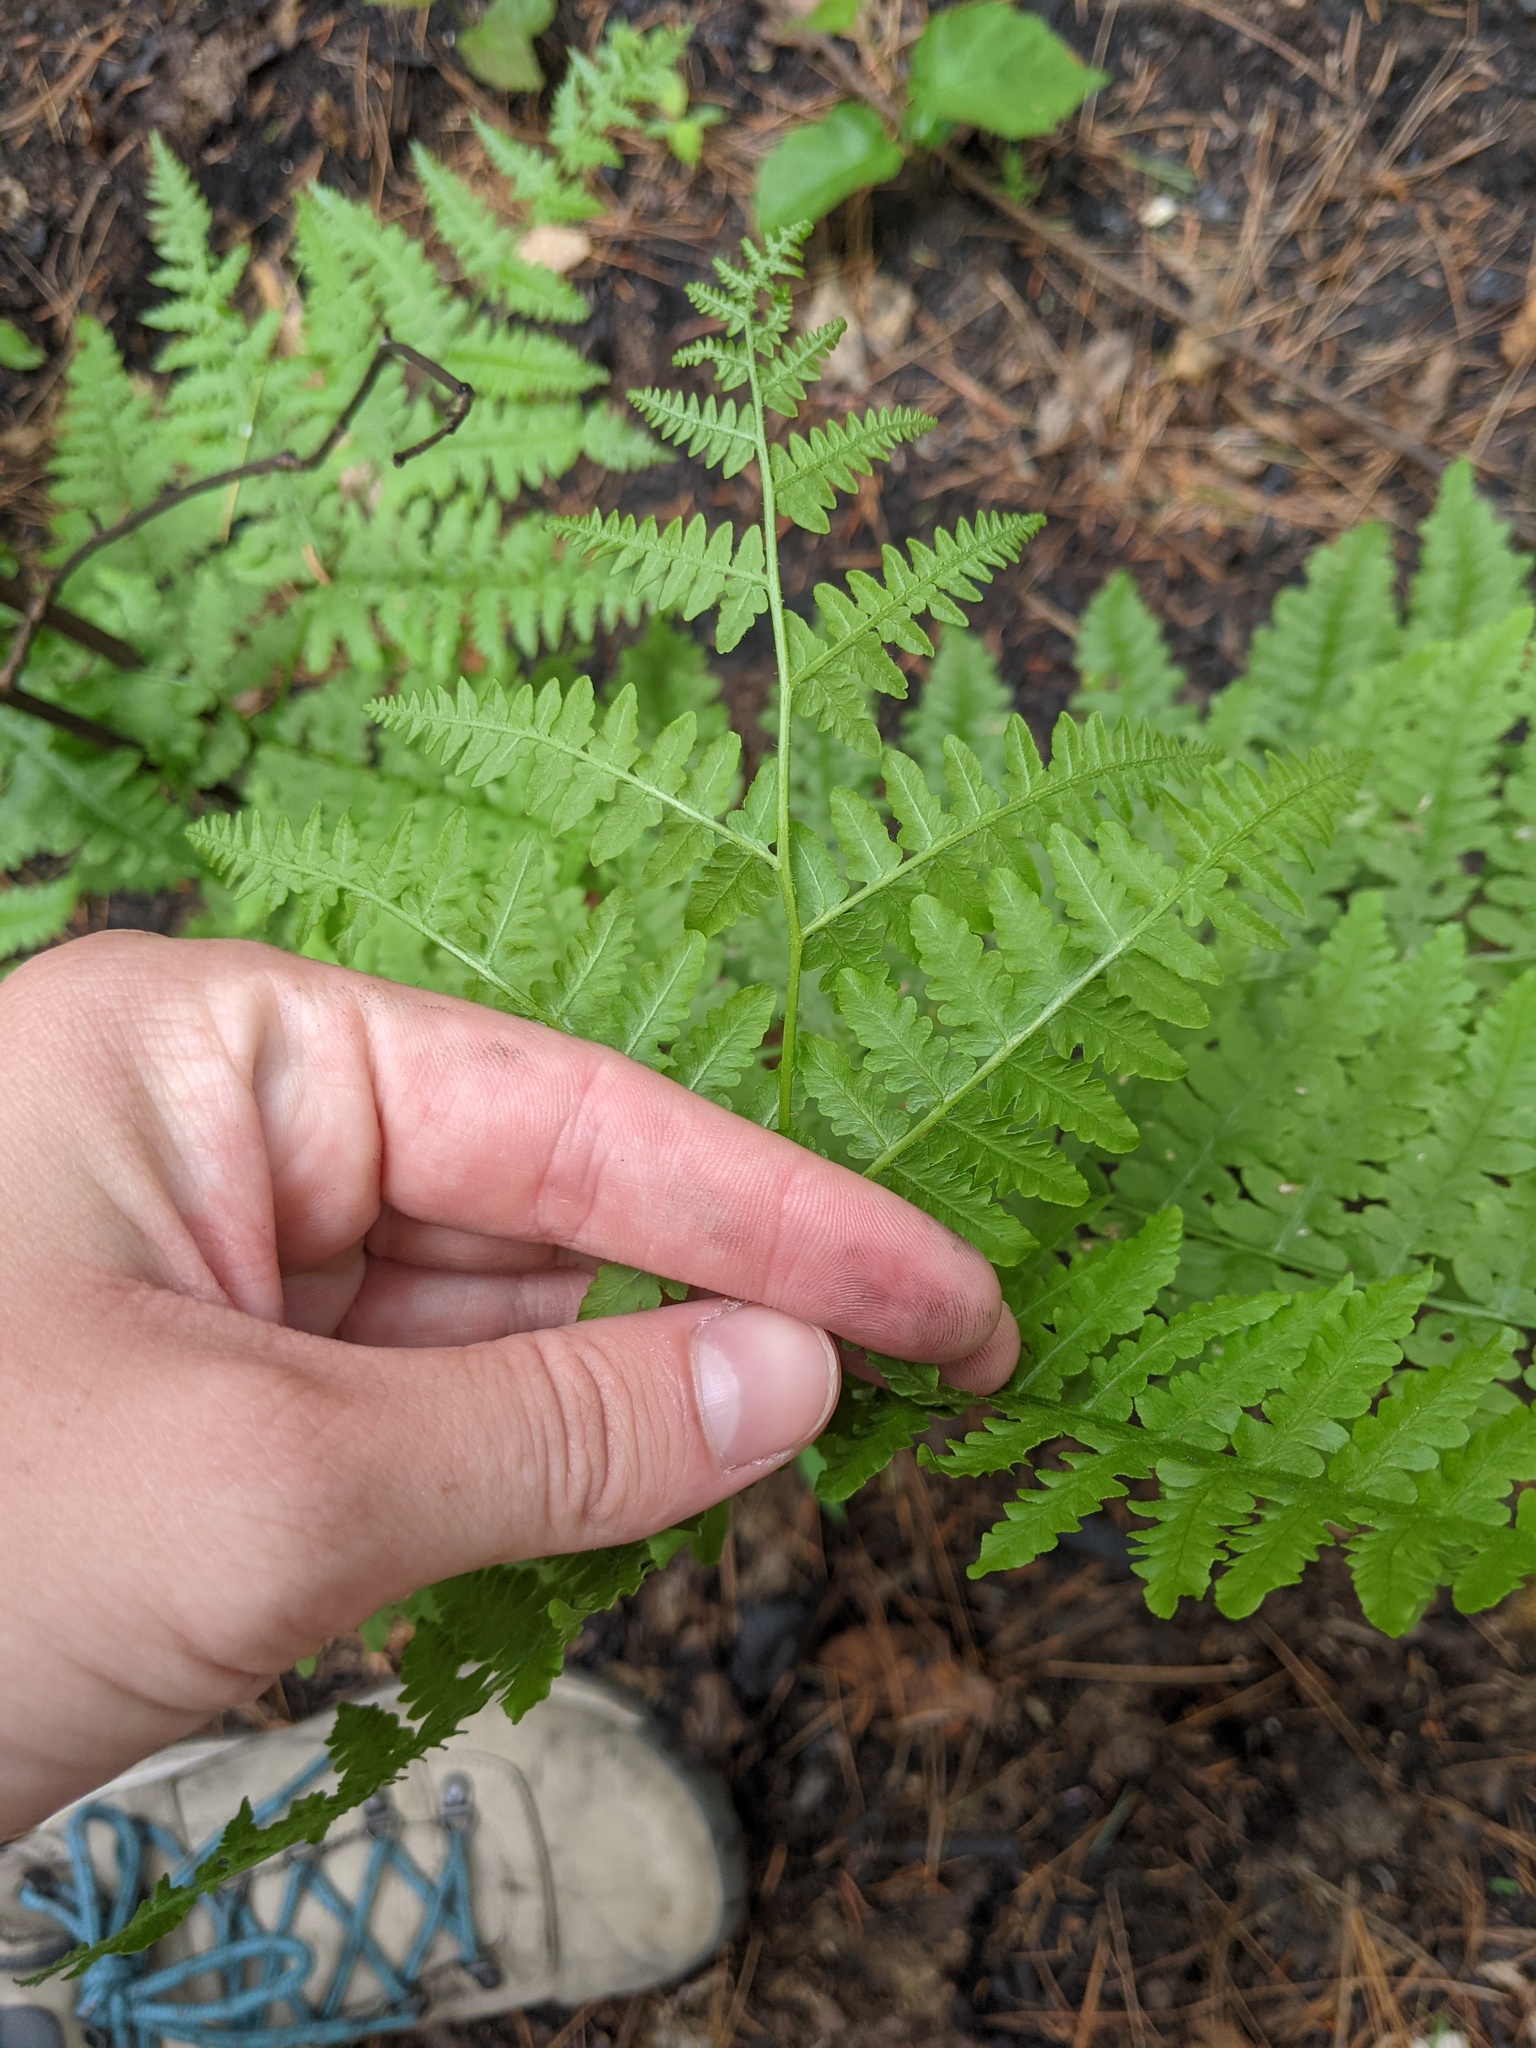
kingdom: Plantae
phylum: Tracheophyta
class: Polypodiopsida
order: Polypodiales
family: Dennstaedtiaceae
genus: Pteridium
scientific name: Pteridium aquilinum
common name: Bracken
